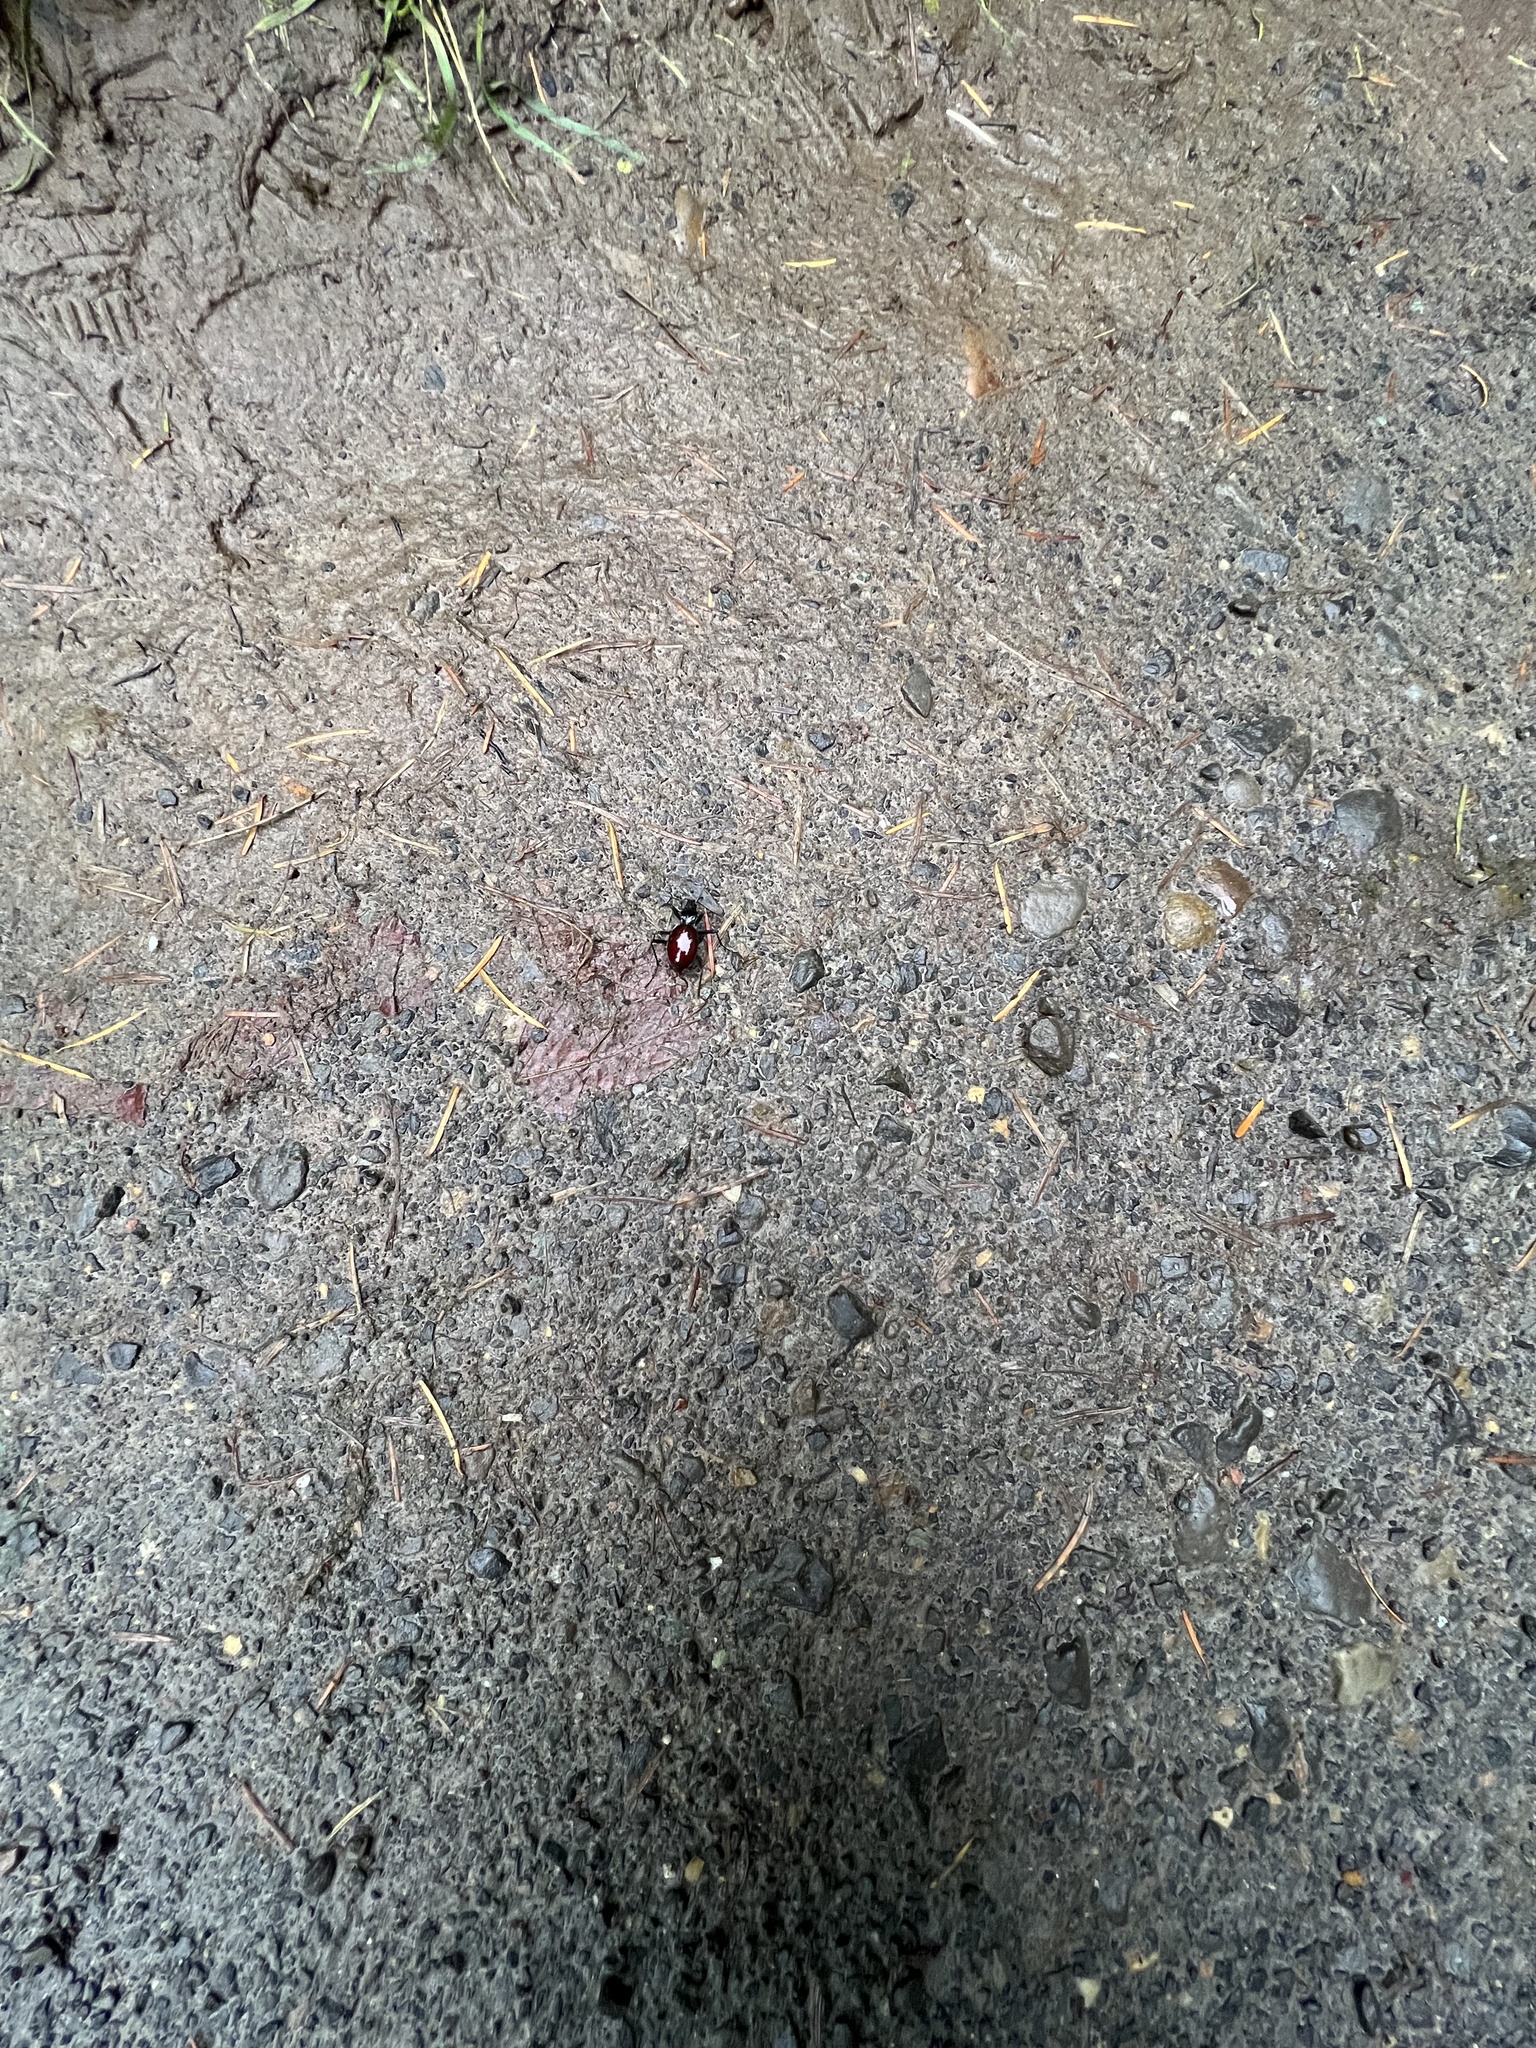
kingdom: Animalia
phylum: Arthropoda
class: Insecta
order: Coleoptera
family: Carabidae
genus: Scaphinotus
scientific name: Scaphinotus angusticollis
